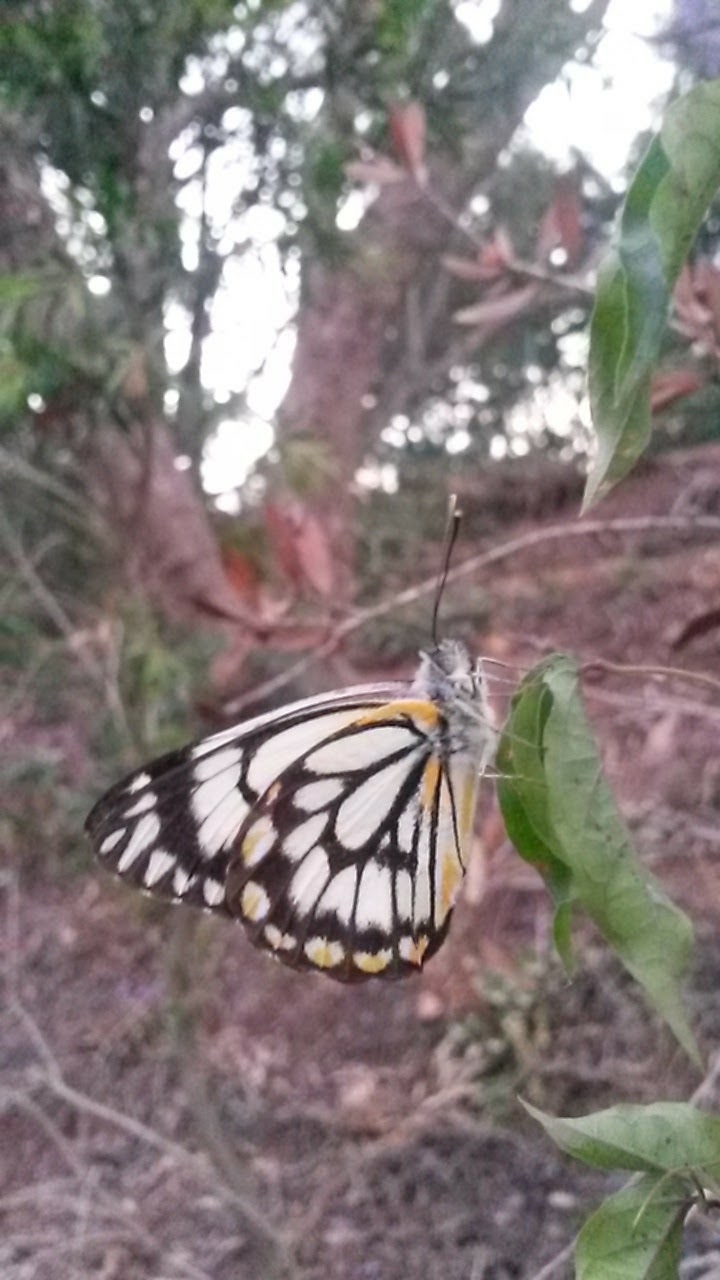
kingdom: Animalia
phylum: Arthropoda
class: Insecta
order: Lepidoptera
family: Pieridae
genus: Belenois
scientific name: Belenois java
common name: Caper white
